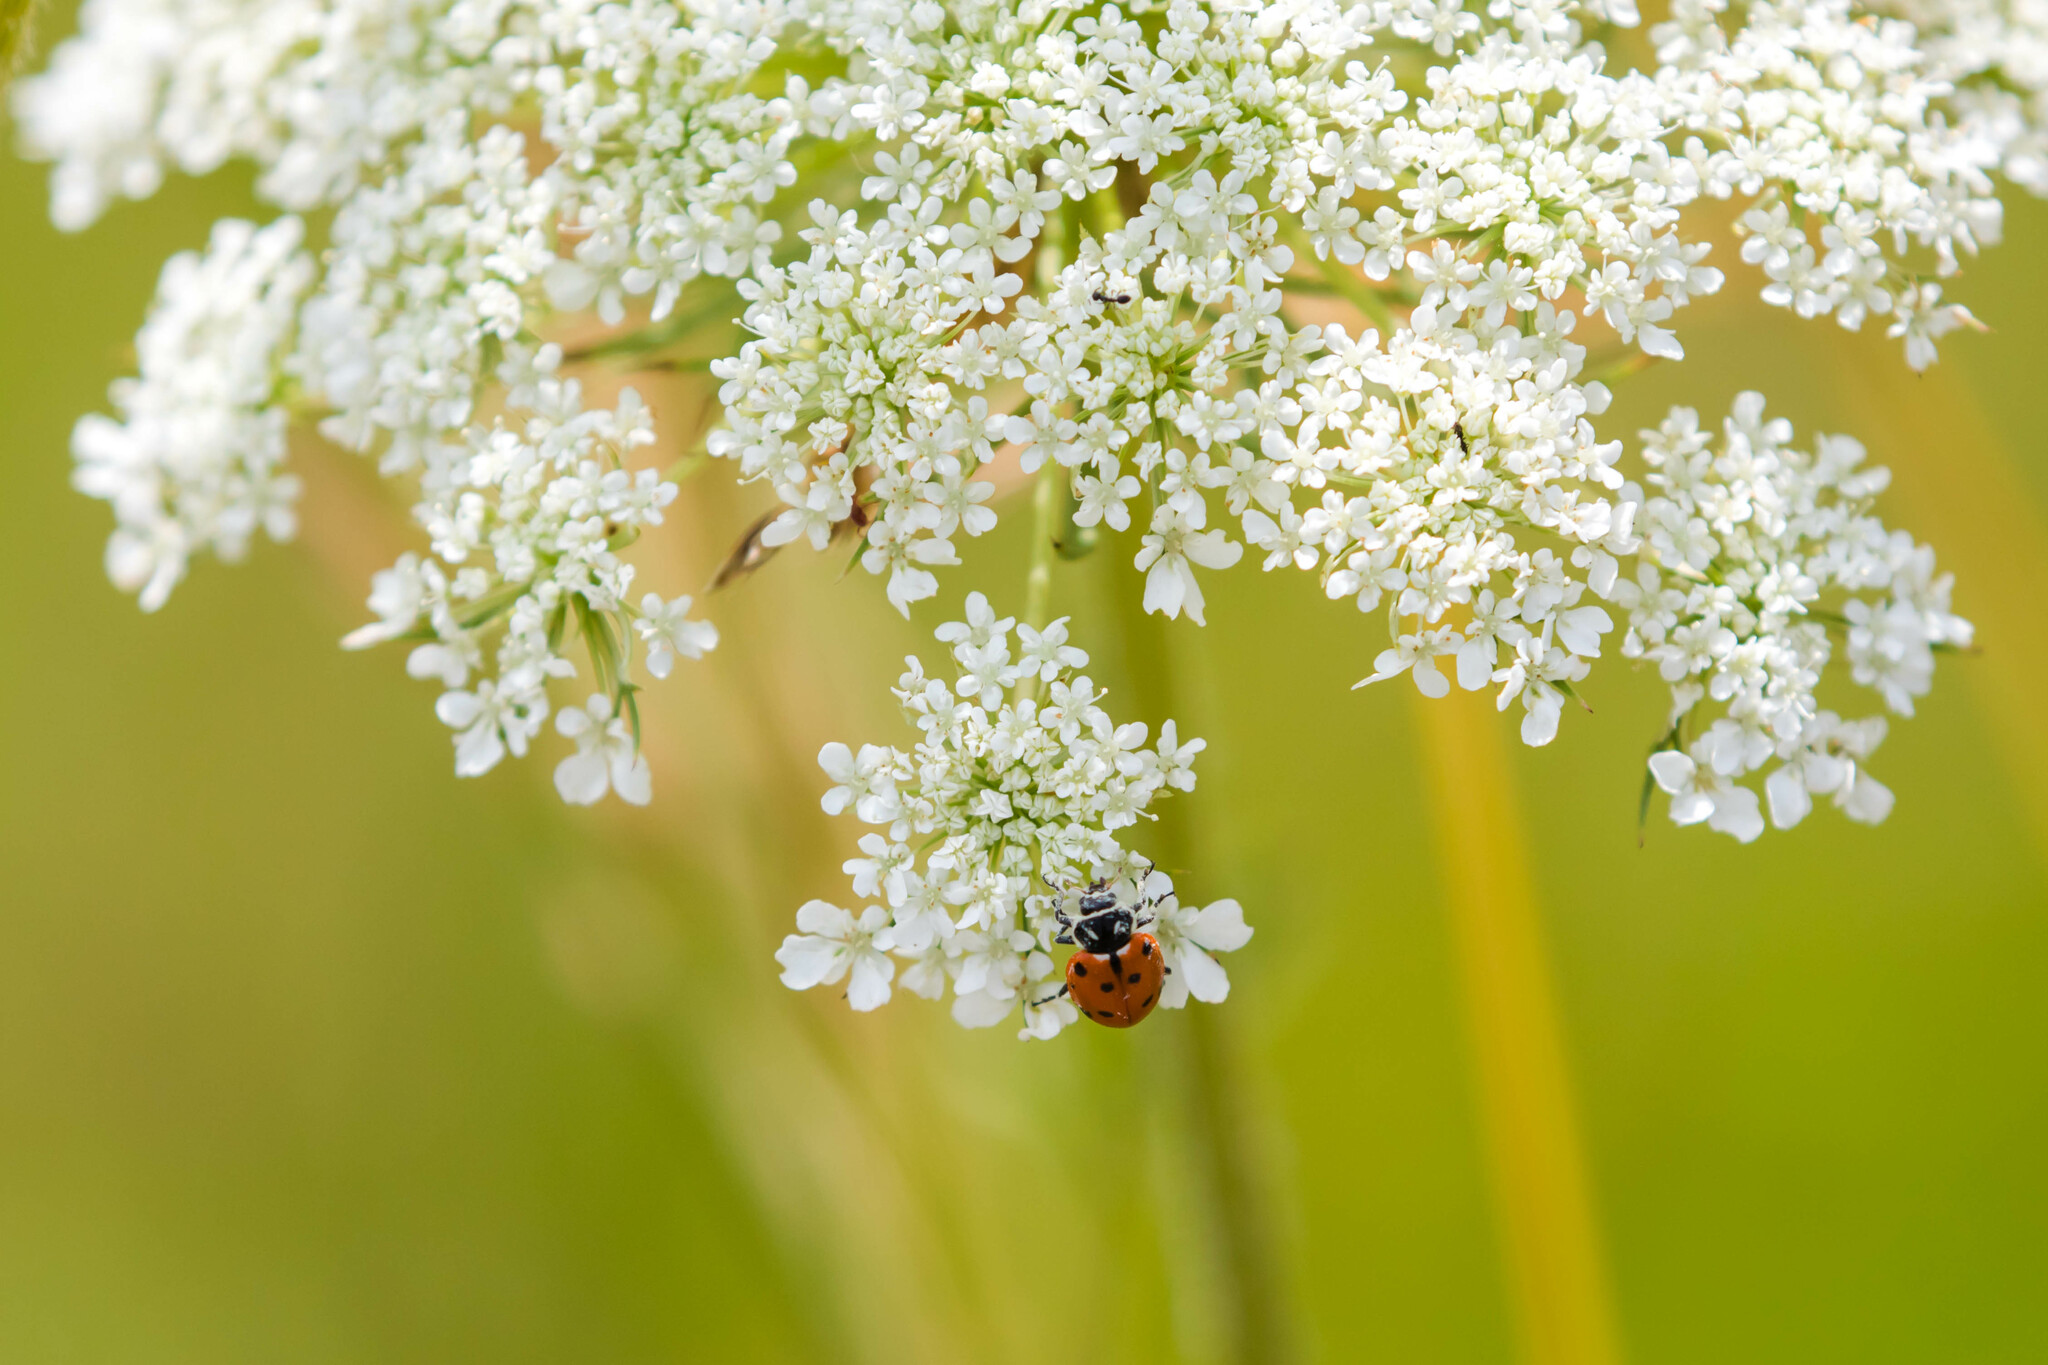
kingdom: Animalia
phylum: Arthropoda
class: Insecta
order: Coleoptera
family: Coccinellidae
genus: Hippodamia
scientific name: Hippodamia convergens
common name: Convergent lady beetle
